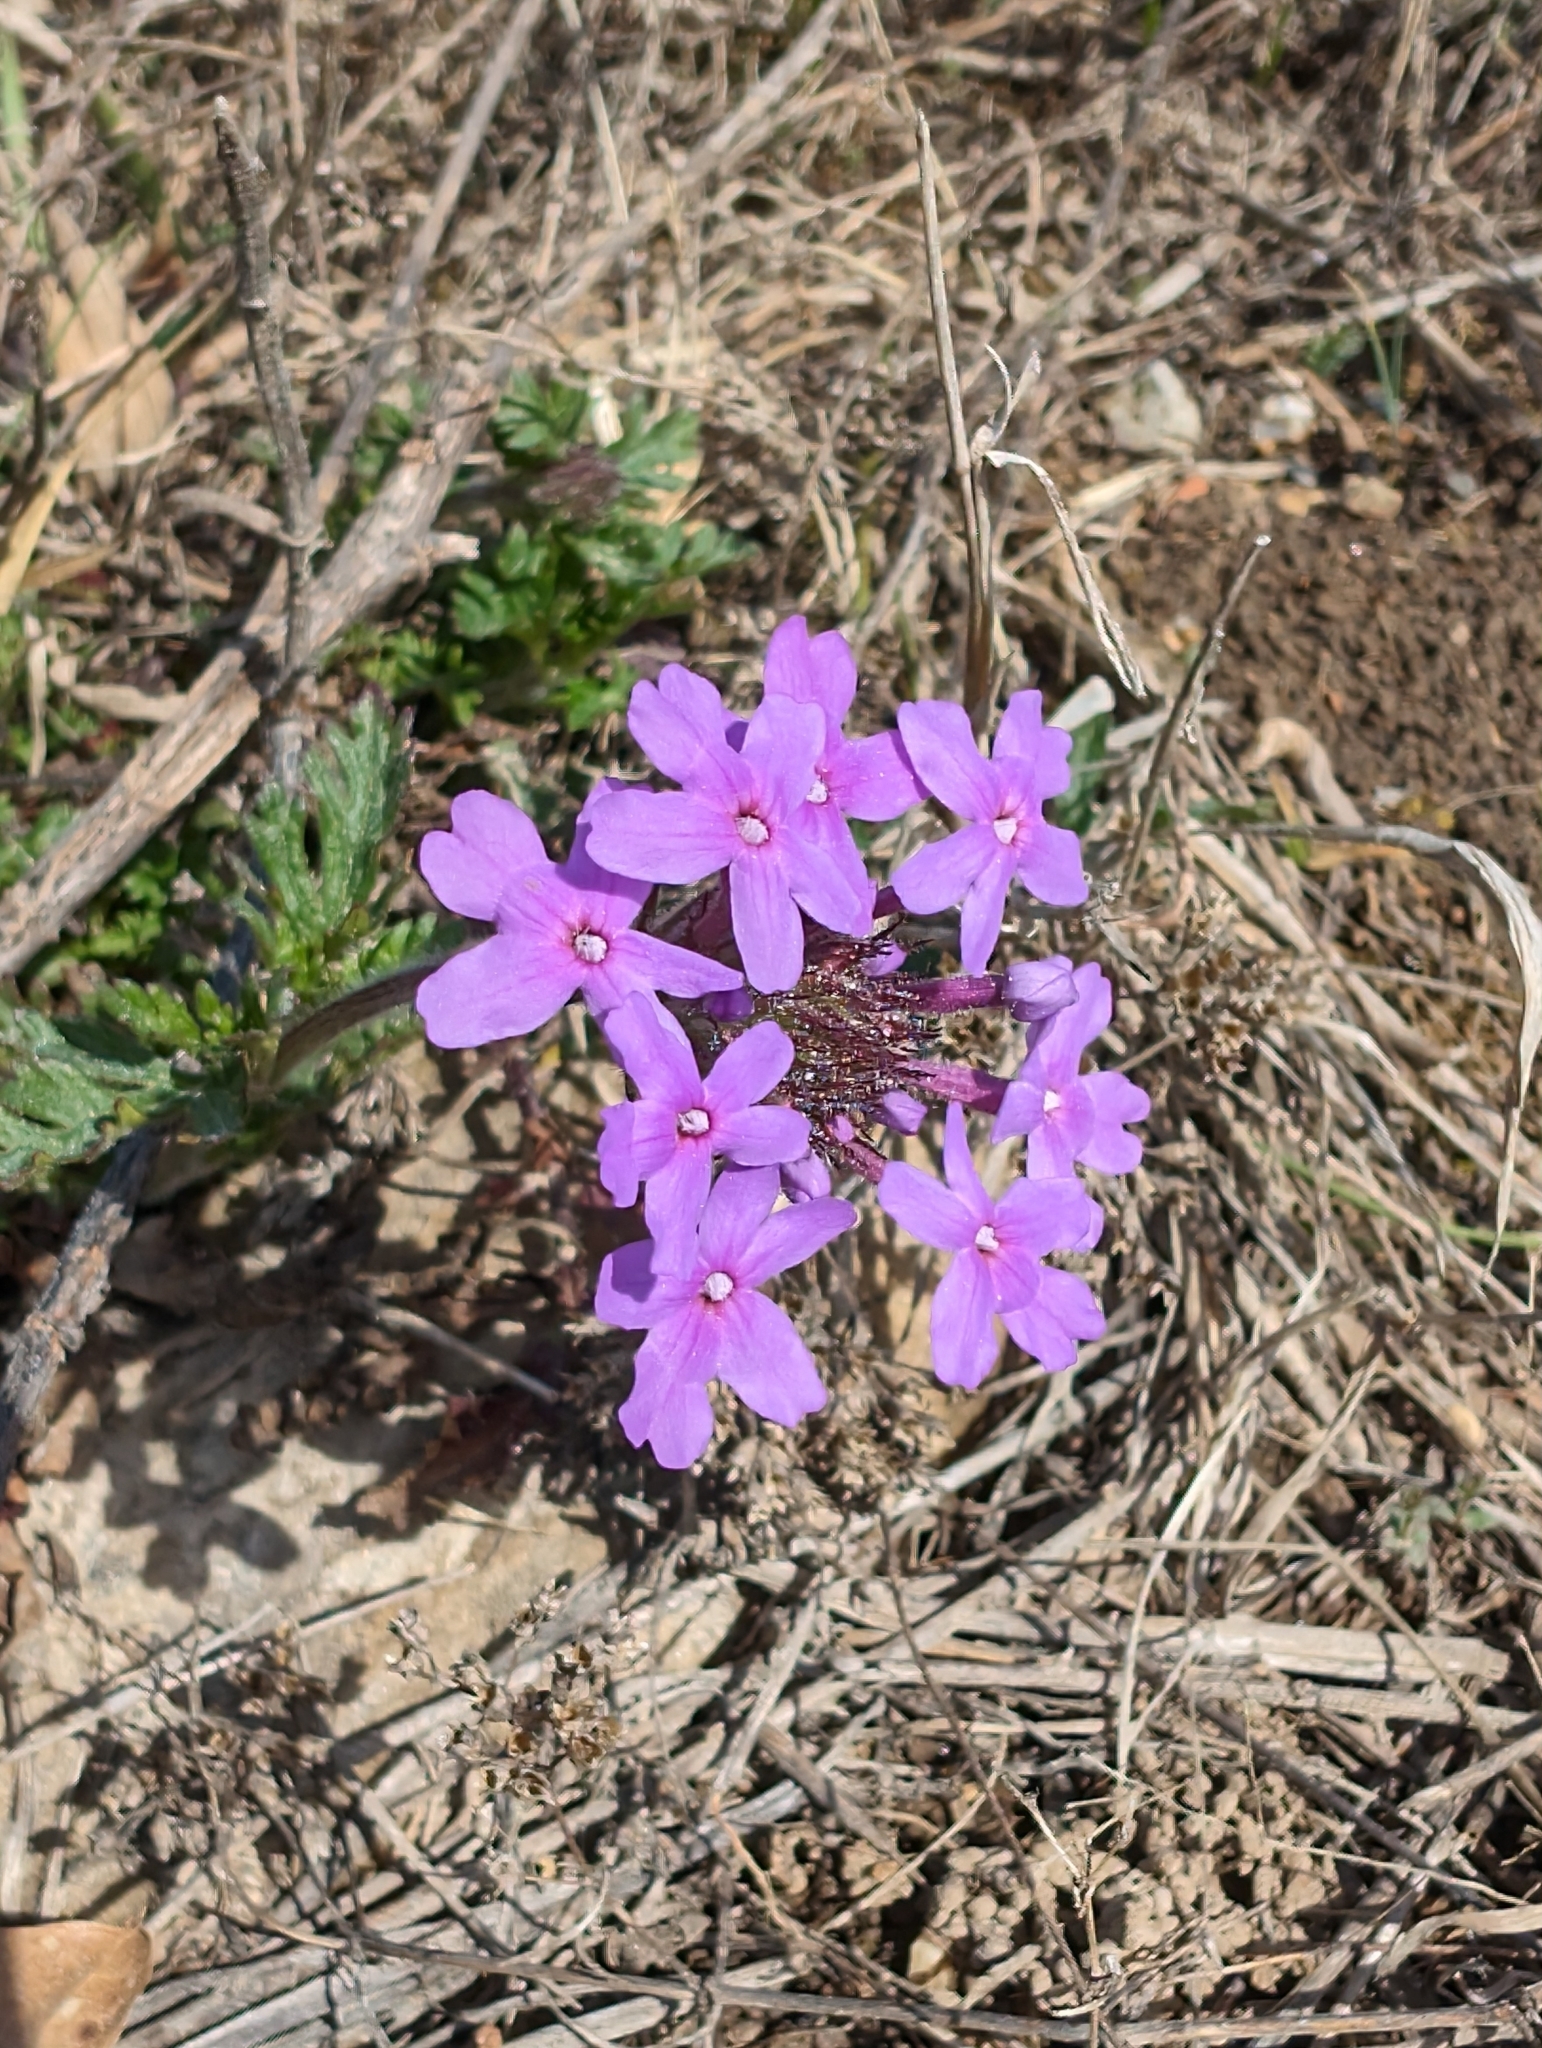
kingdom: Plantae
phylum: Tracheophyta
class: Magnoliopsida
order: Lamiales
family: Verbenaceae
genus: Verbena
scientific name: Verbena canadensis
